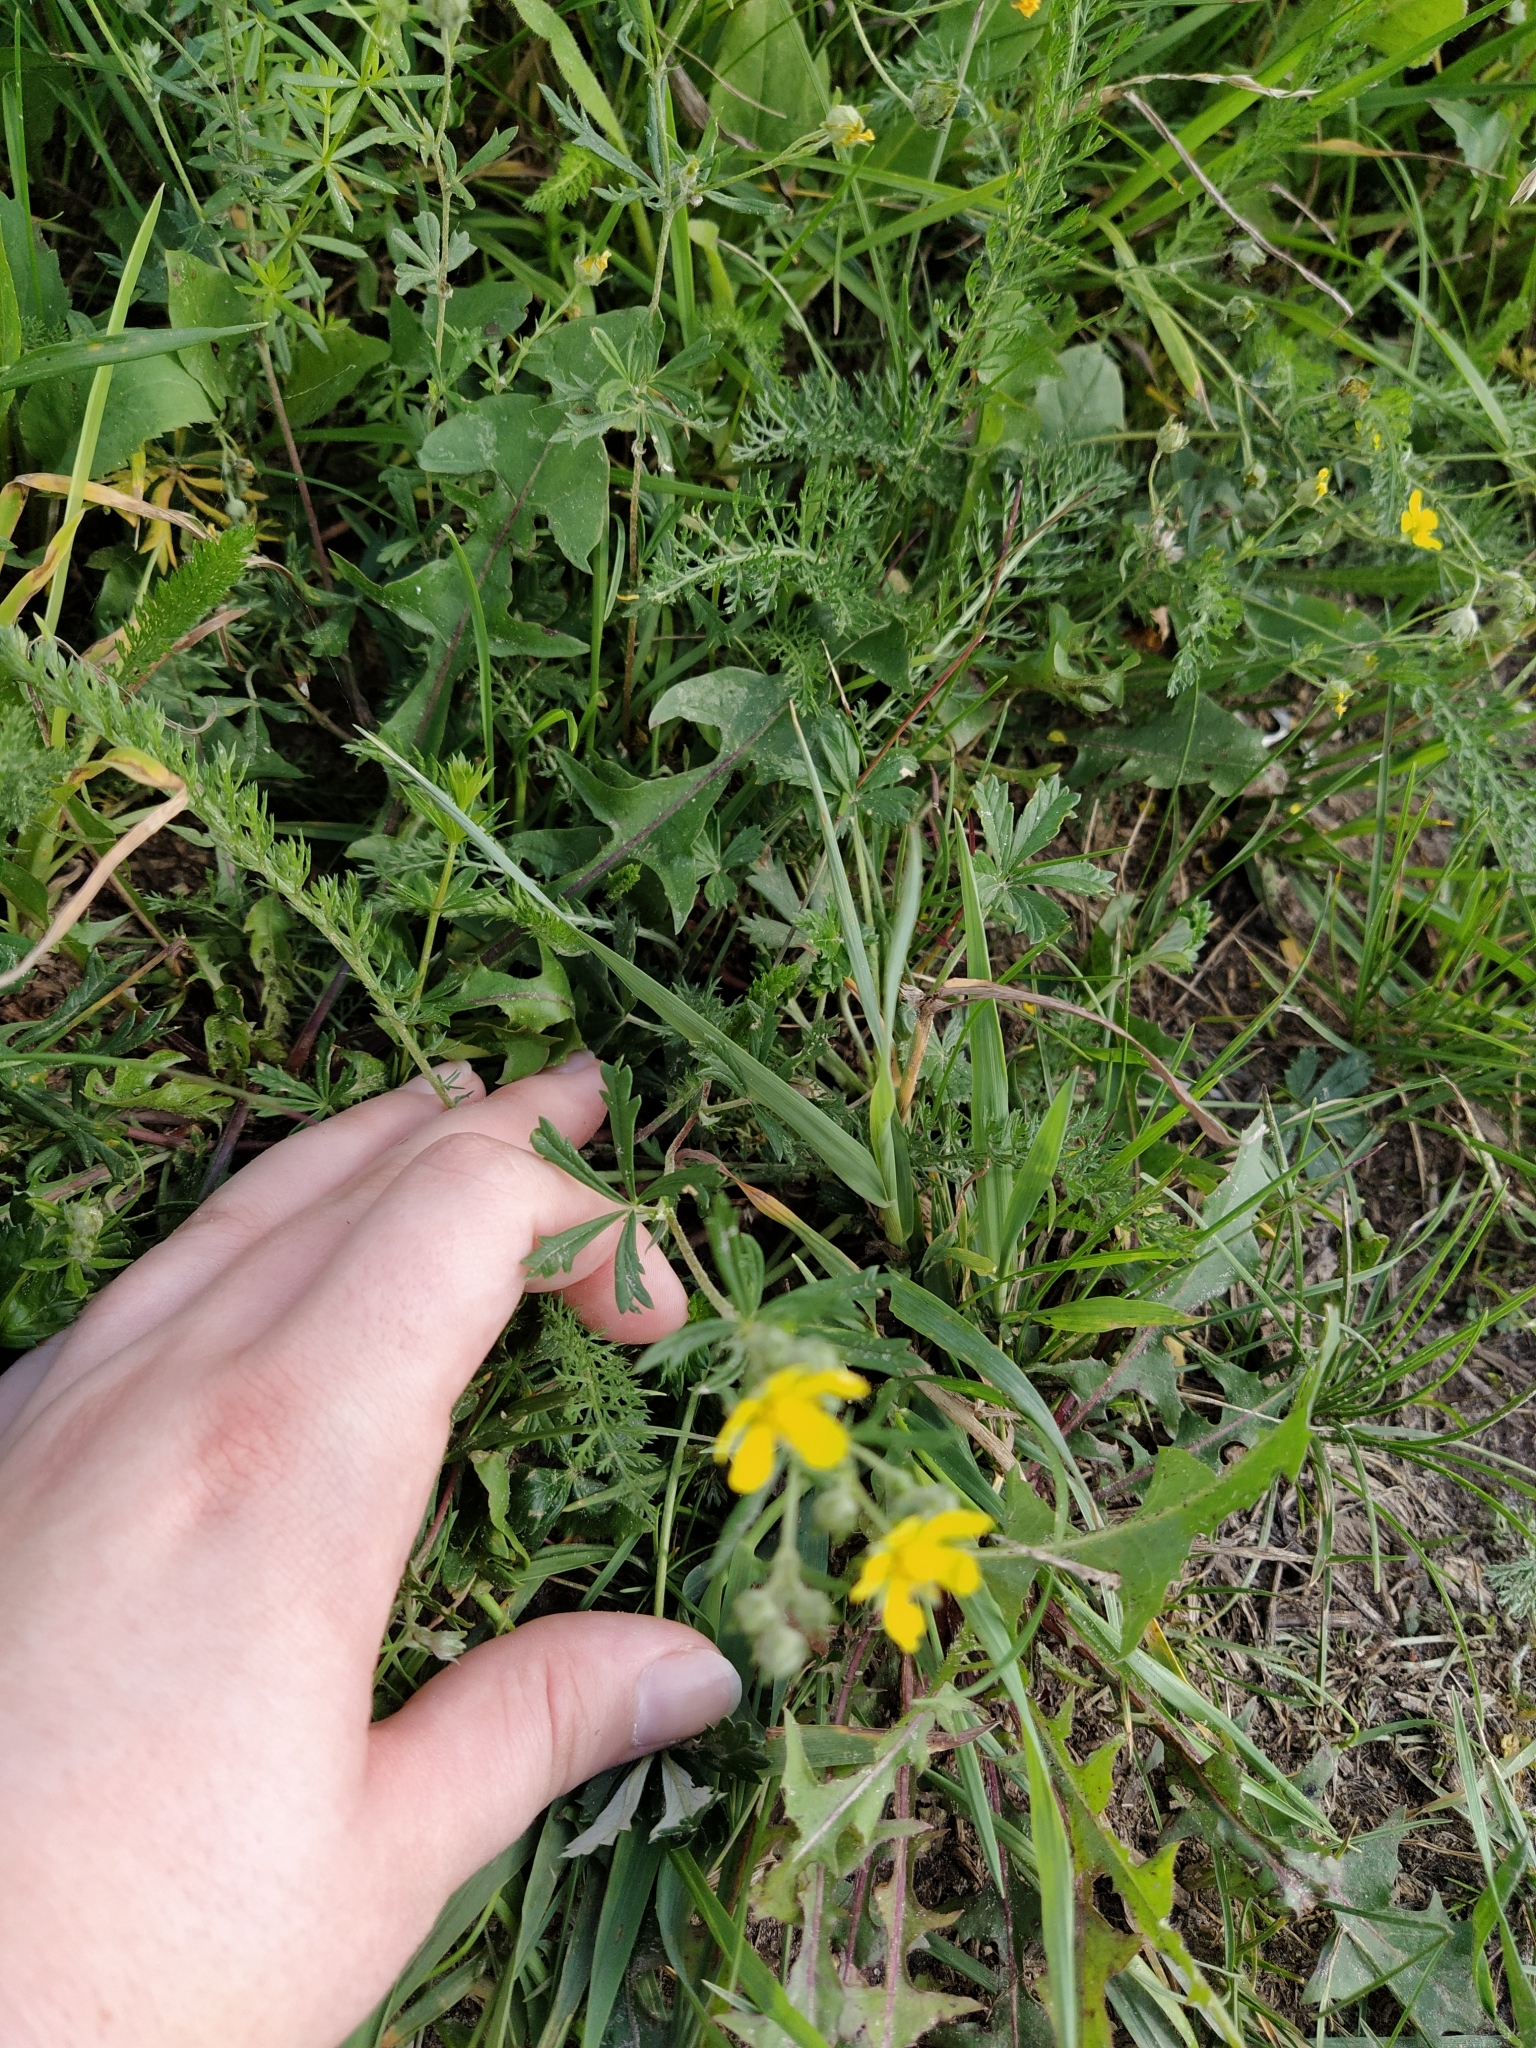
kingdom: Plantae
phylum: Tracheophyta
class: Magnoliopsida
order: Rosales
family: Rosaceae
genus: Potentilla
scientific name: Potentilla argentea
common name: Hoary cinquefoil
